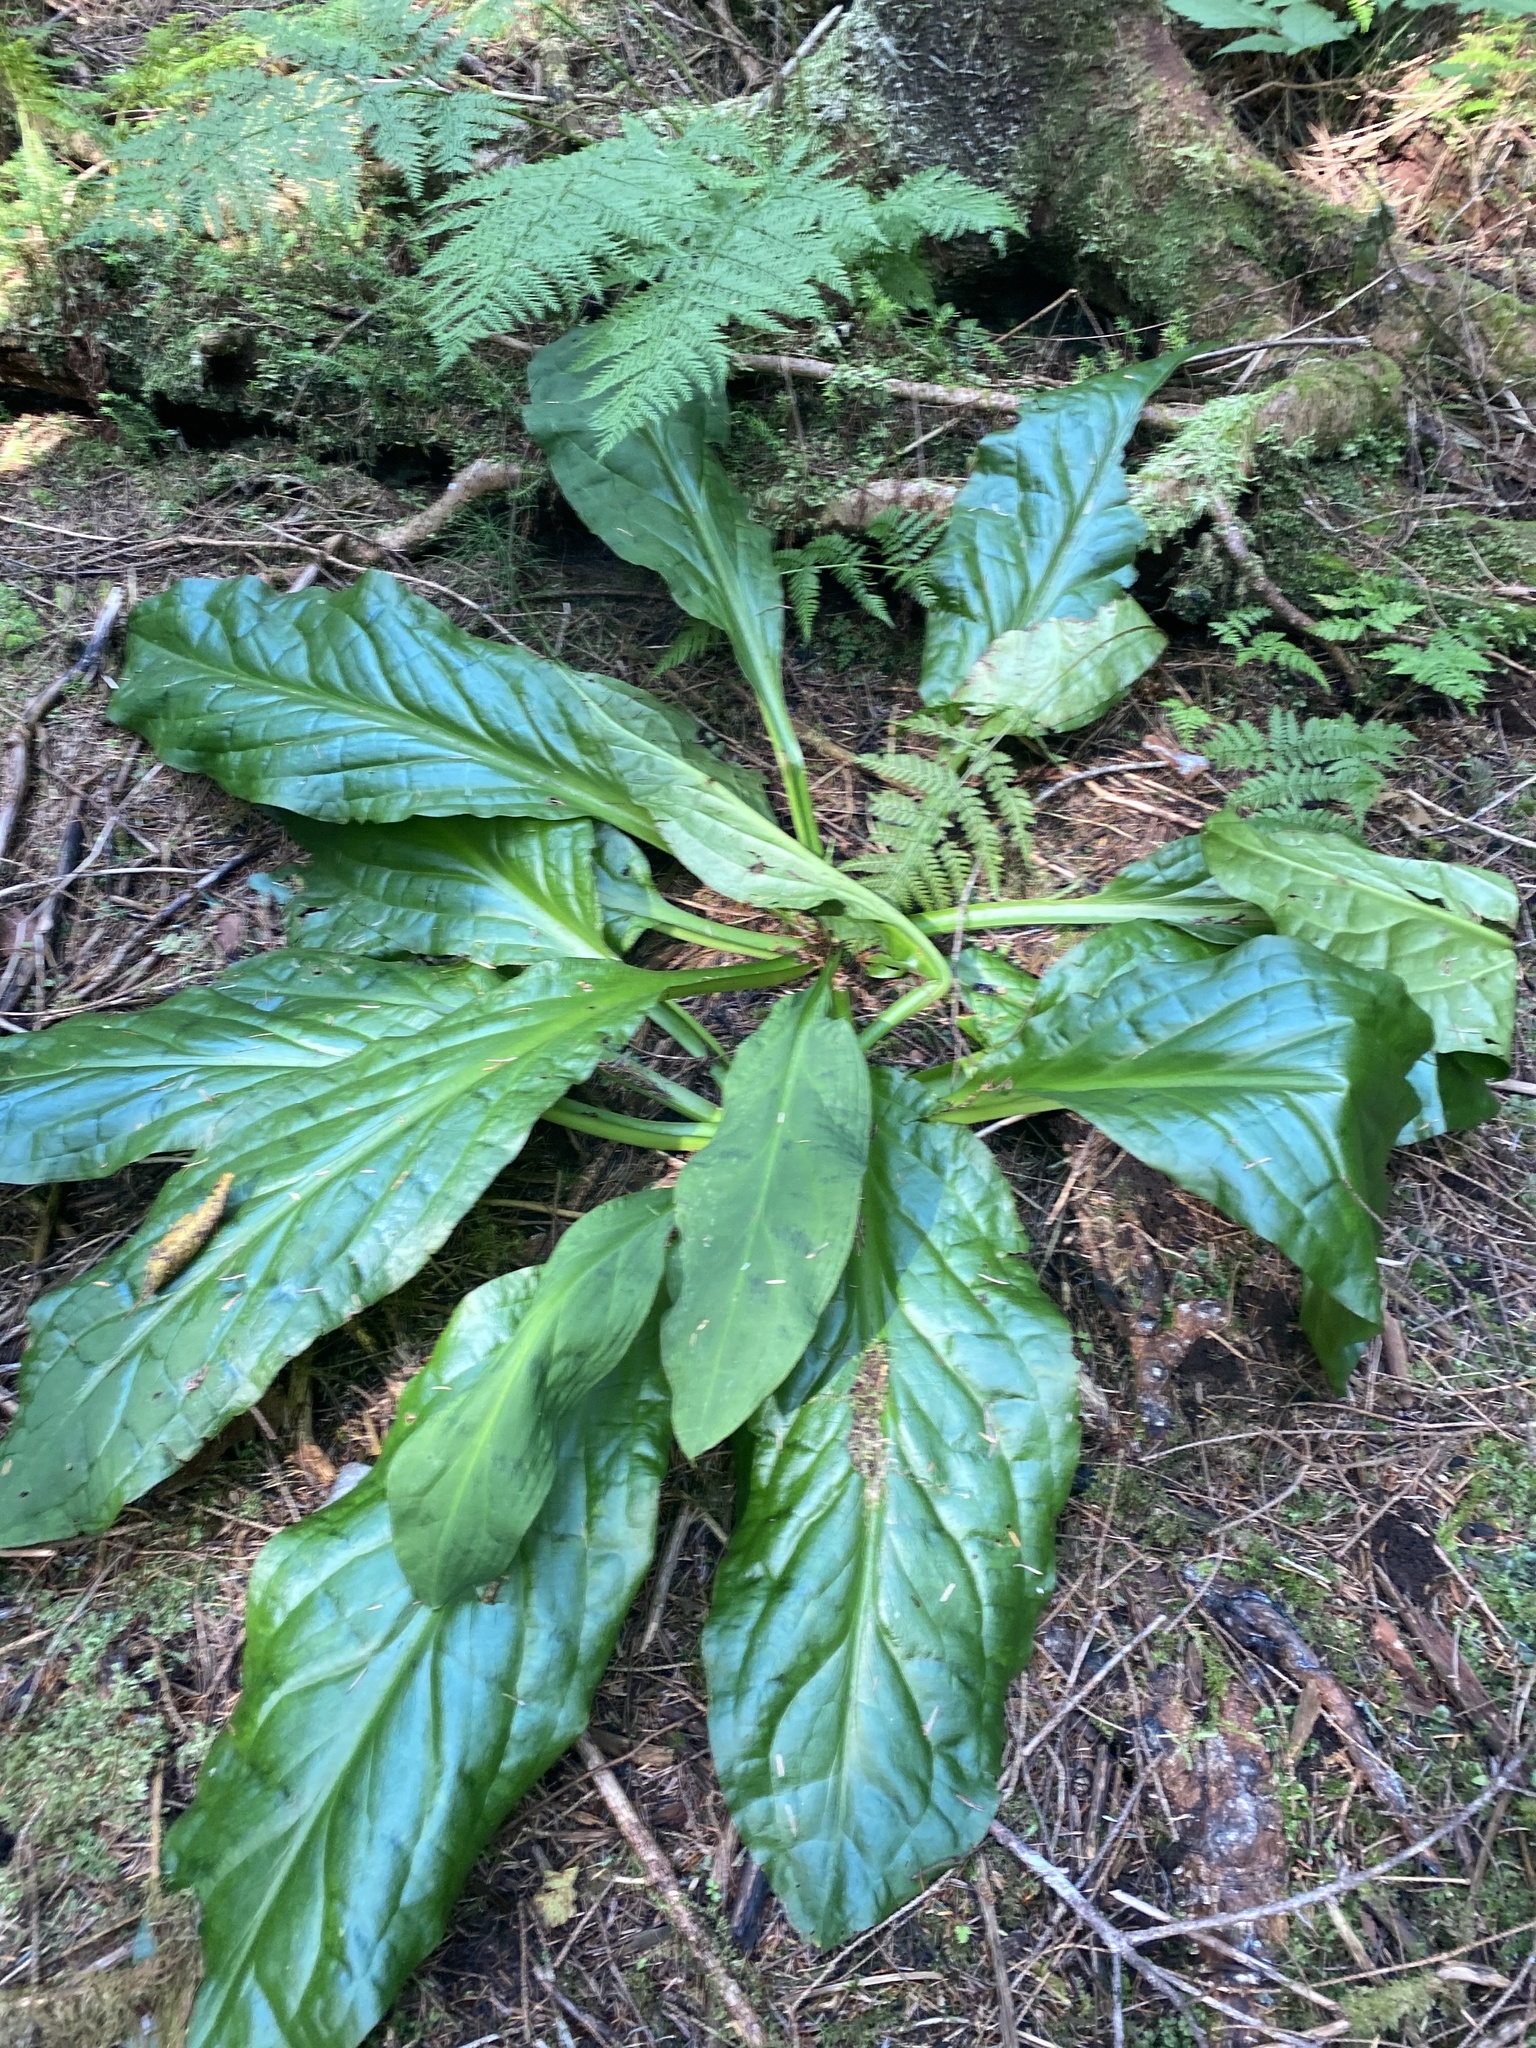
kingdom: Plantae
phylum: Tracheophyta
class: Liliopsida
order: Alismatales
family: Araceae
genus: Lysichiton
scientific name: Lysichiton americanus
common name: American skunk cabbage
